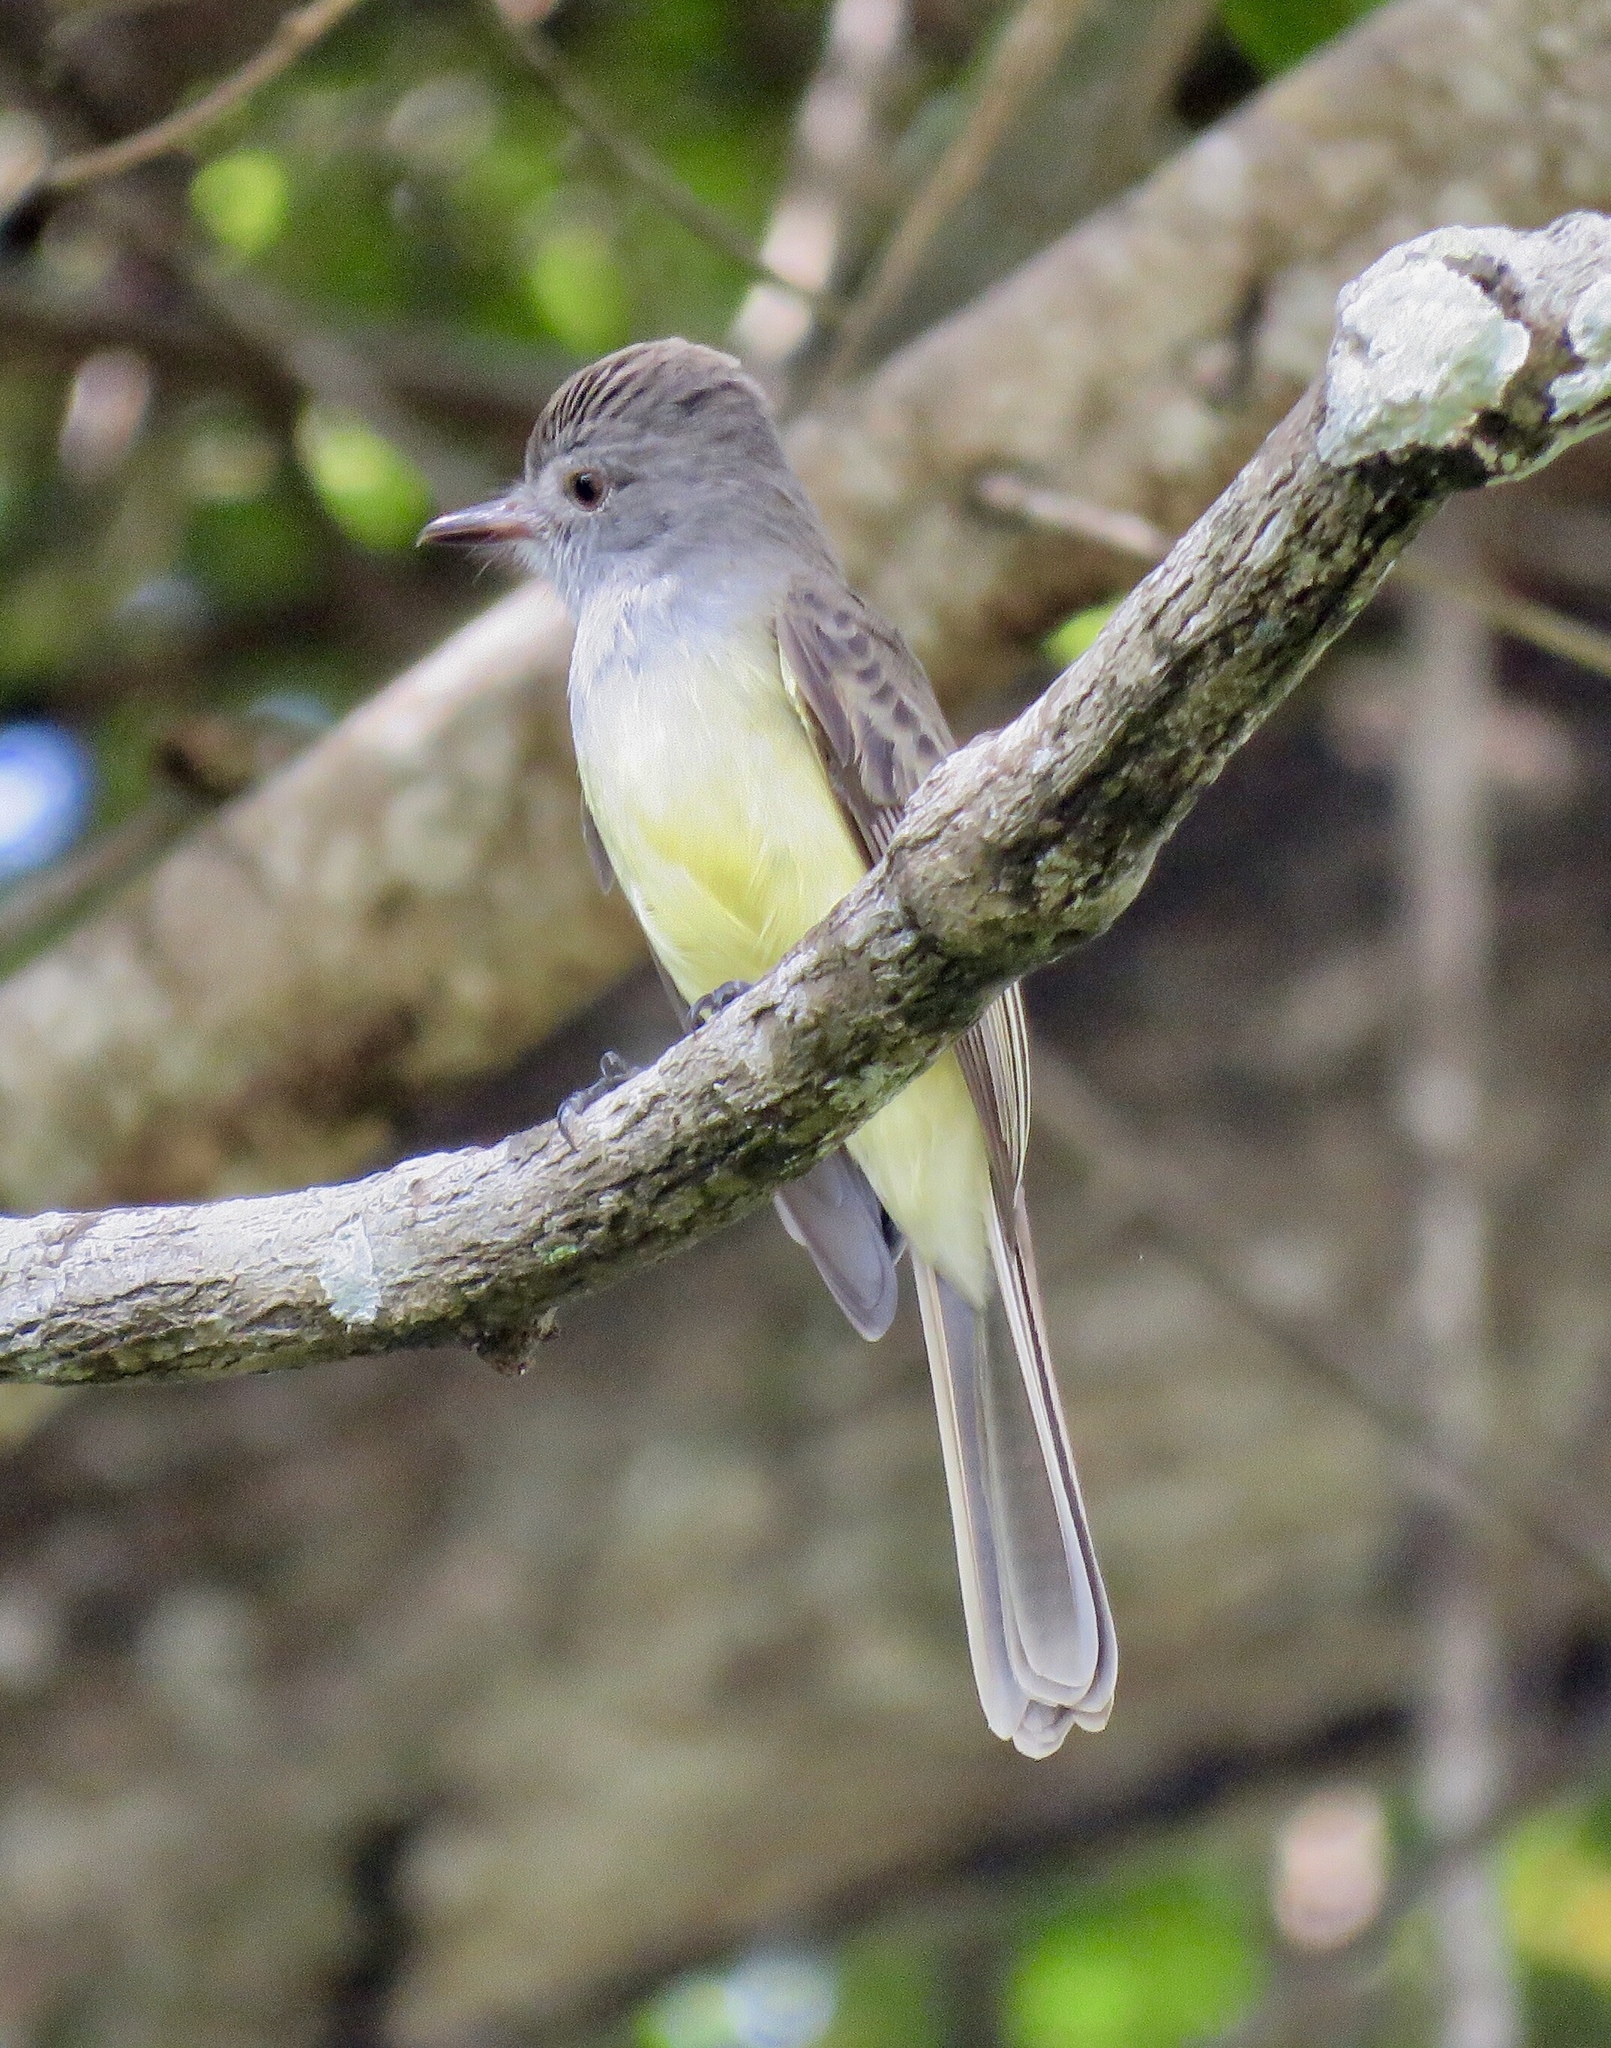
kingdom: Animalia
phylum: Chordata
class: Aves
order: Passeriformes
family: Tyrannidae
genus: Myiarchus
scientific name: Myiarchus panamensis
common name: Panama flycatcher
